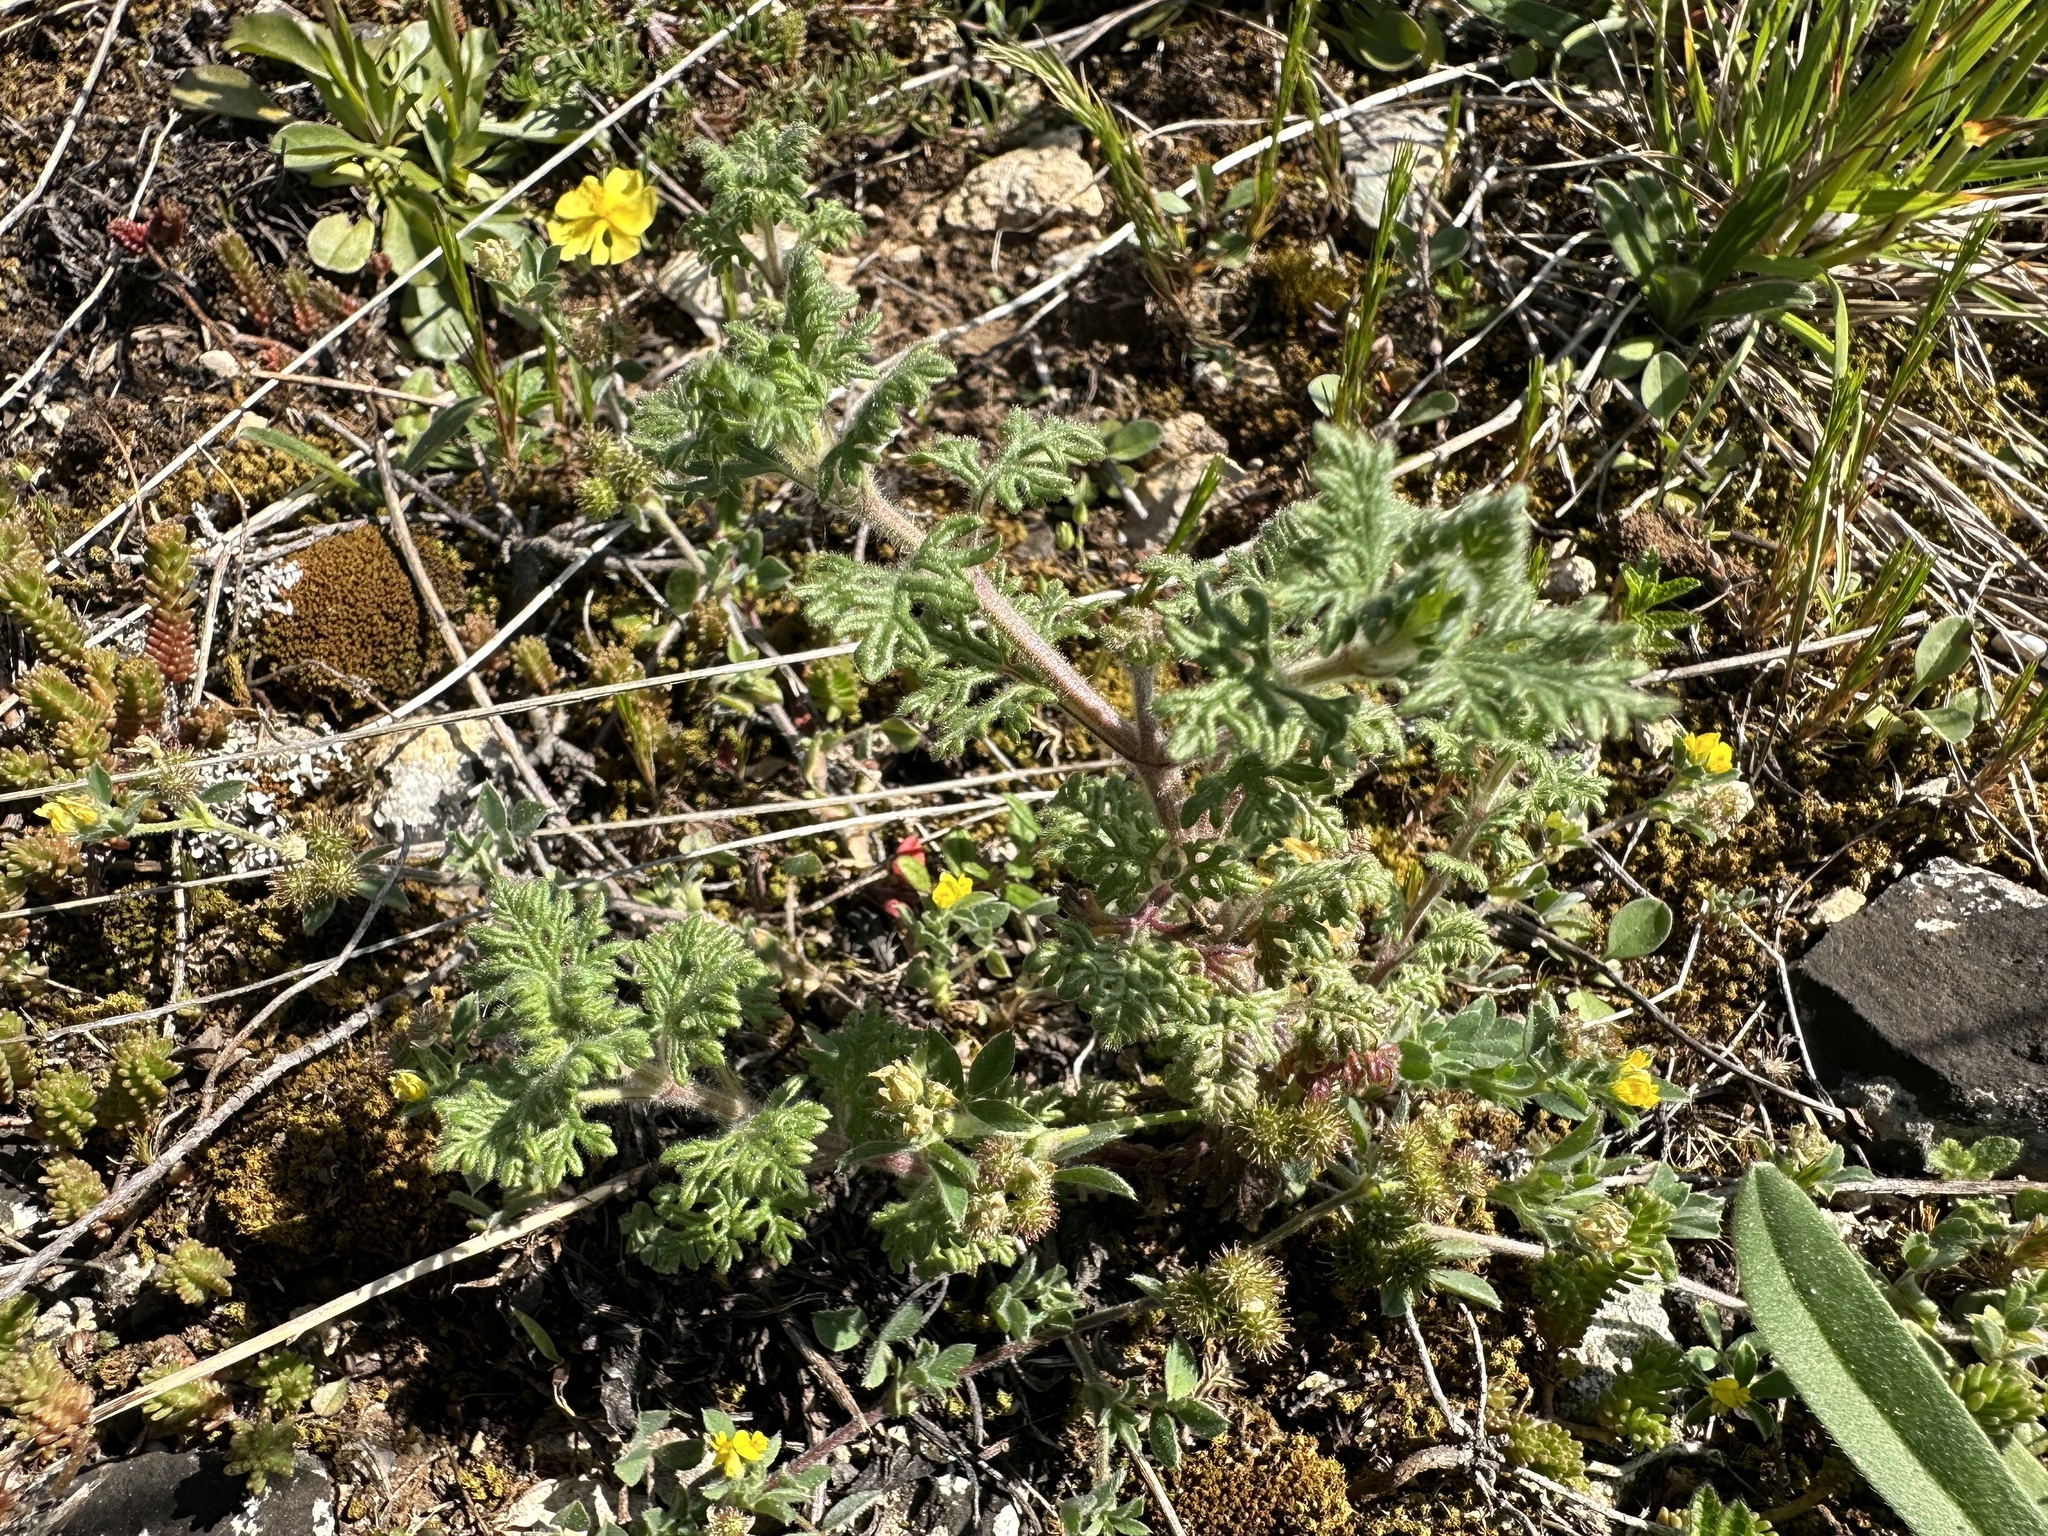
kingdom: Plantae
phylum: Tracheophyta
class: Magnoliopsida
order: Lamiales
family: Lamiaceae
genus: Teucrium
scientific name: Teucrium botrys
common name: Cut-leaved germander
